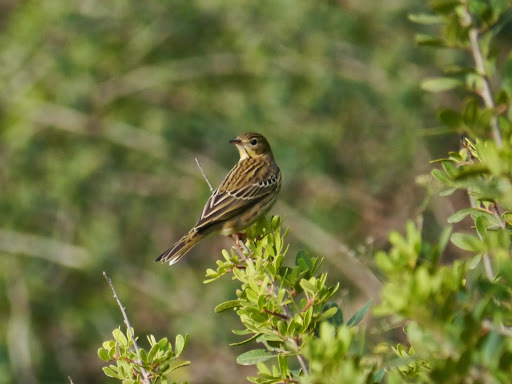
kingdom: Animalia
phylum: Chordata
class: Aves
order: Passeriformes
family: Motacillidae
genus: Anthus
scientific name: Anthus pratensis
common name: Meadow pipit
